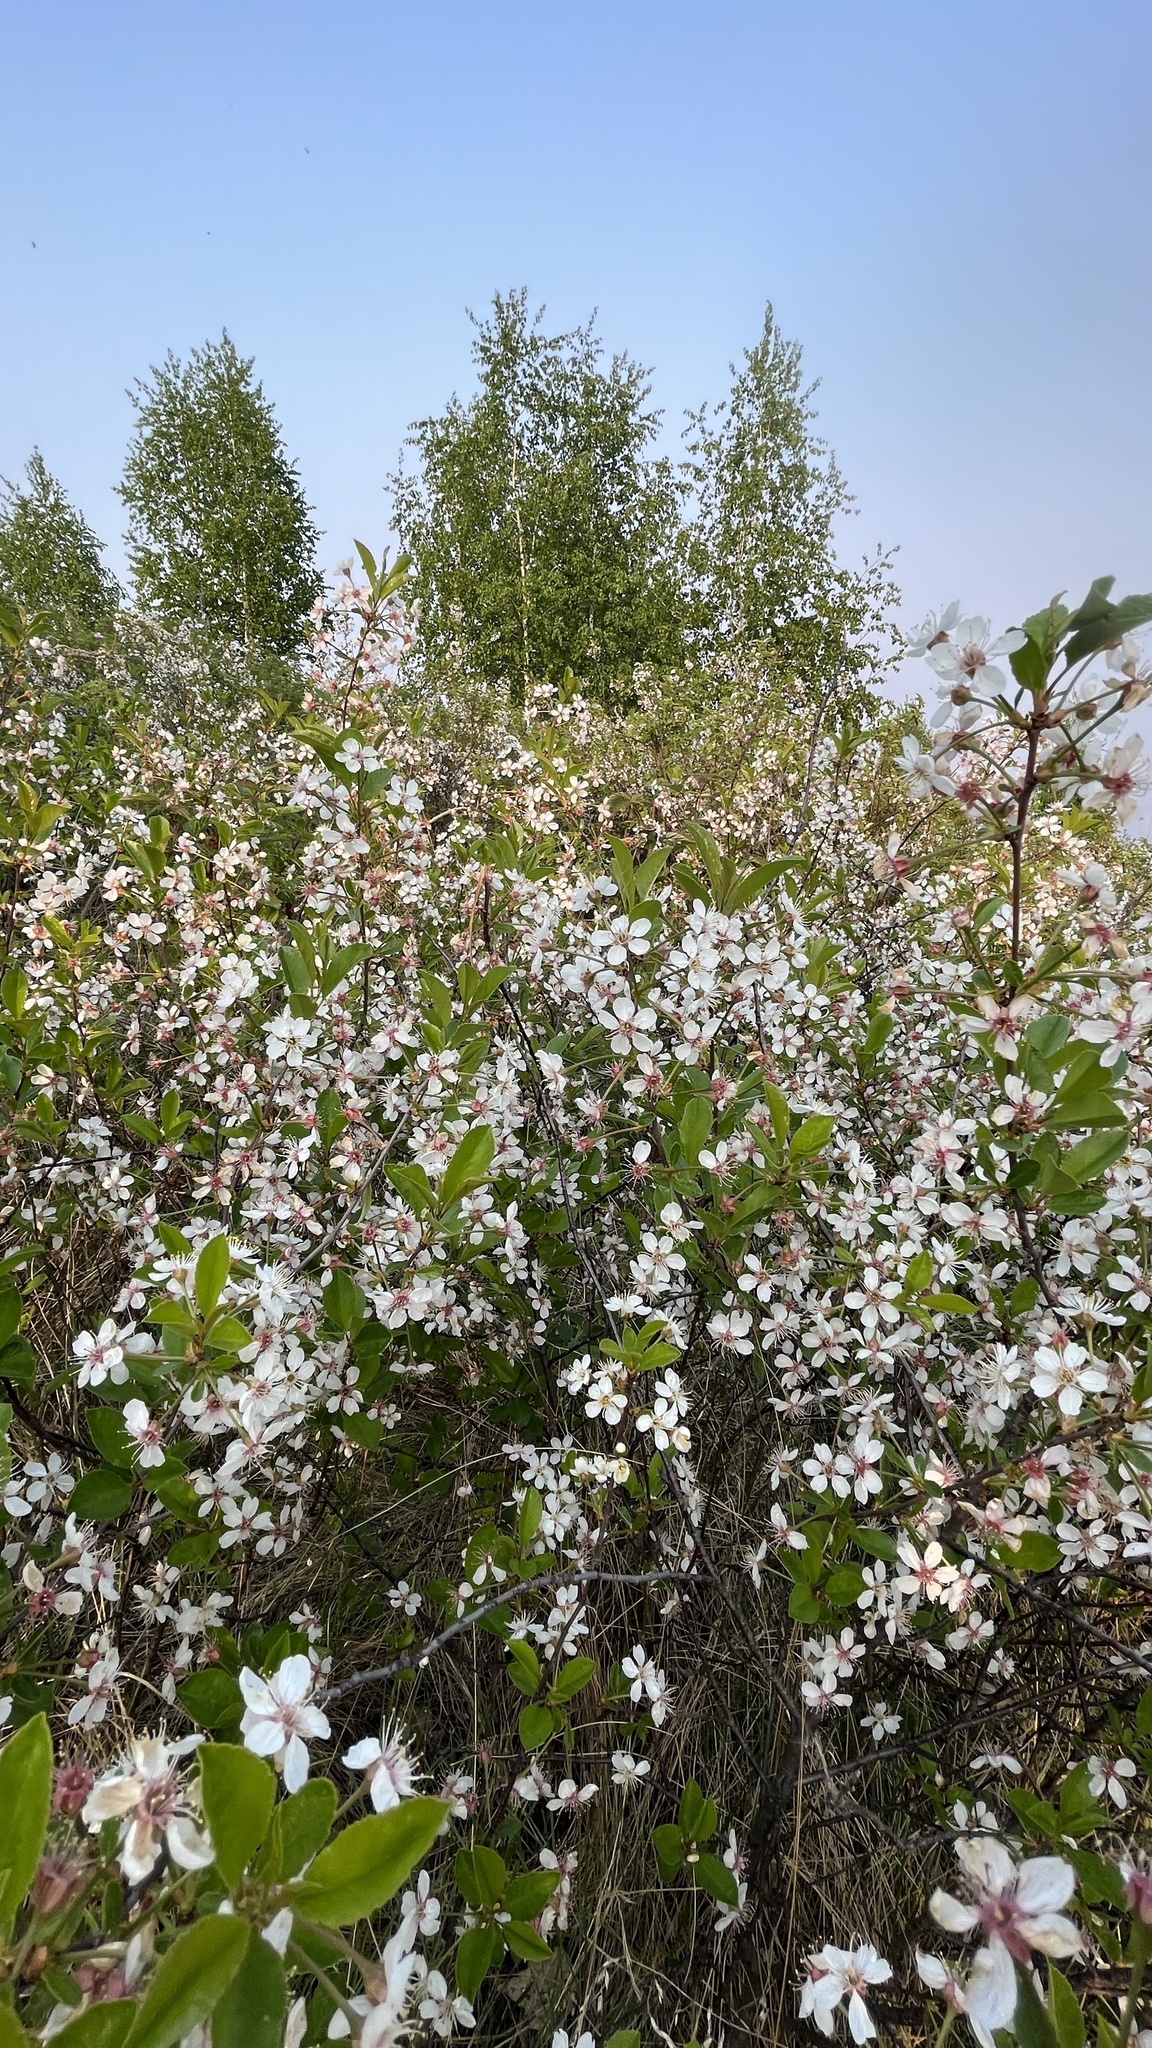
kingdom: Plantae
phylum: Tracheophyta
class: Magnoliopsida
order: Rosales
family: Rosaceae
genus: Prunus
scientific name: Prunus cerasus
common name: Morello cherry
